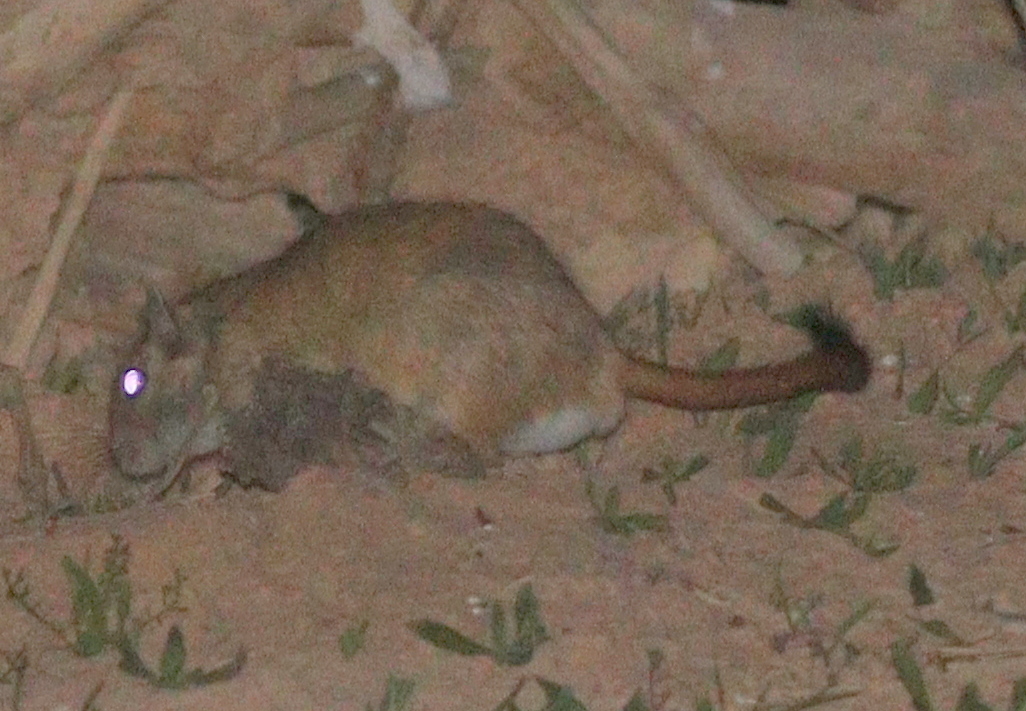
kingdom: Animalia
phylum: Chordata
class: Mammalia
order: Rodentia
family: Muridae
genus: Meriones
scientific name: Meriones libycus
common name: Libyan jird
